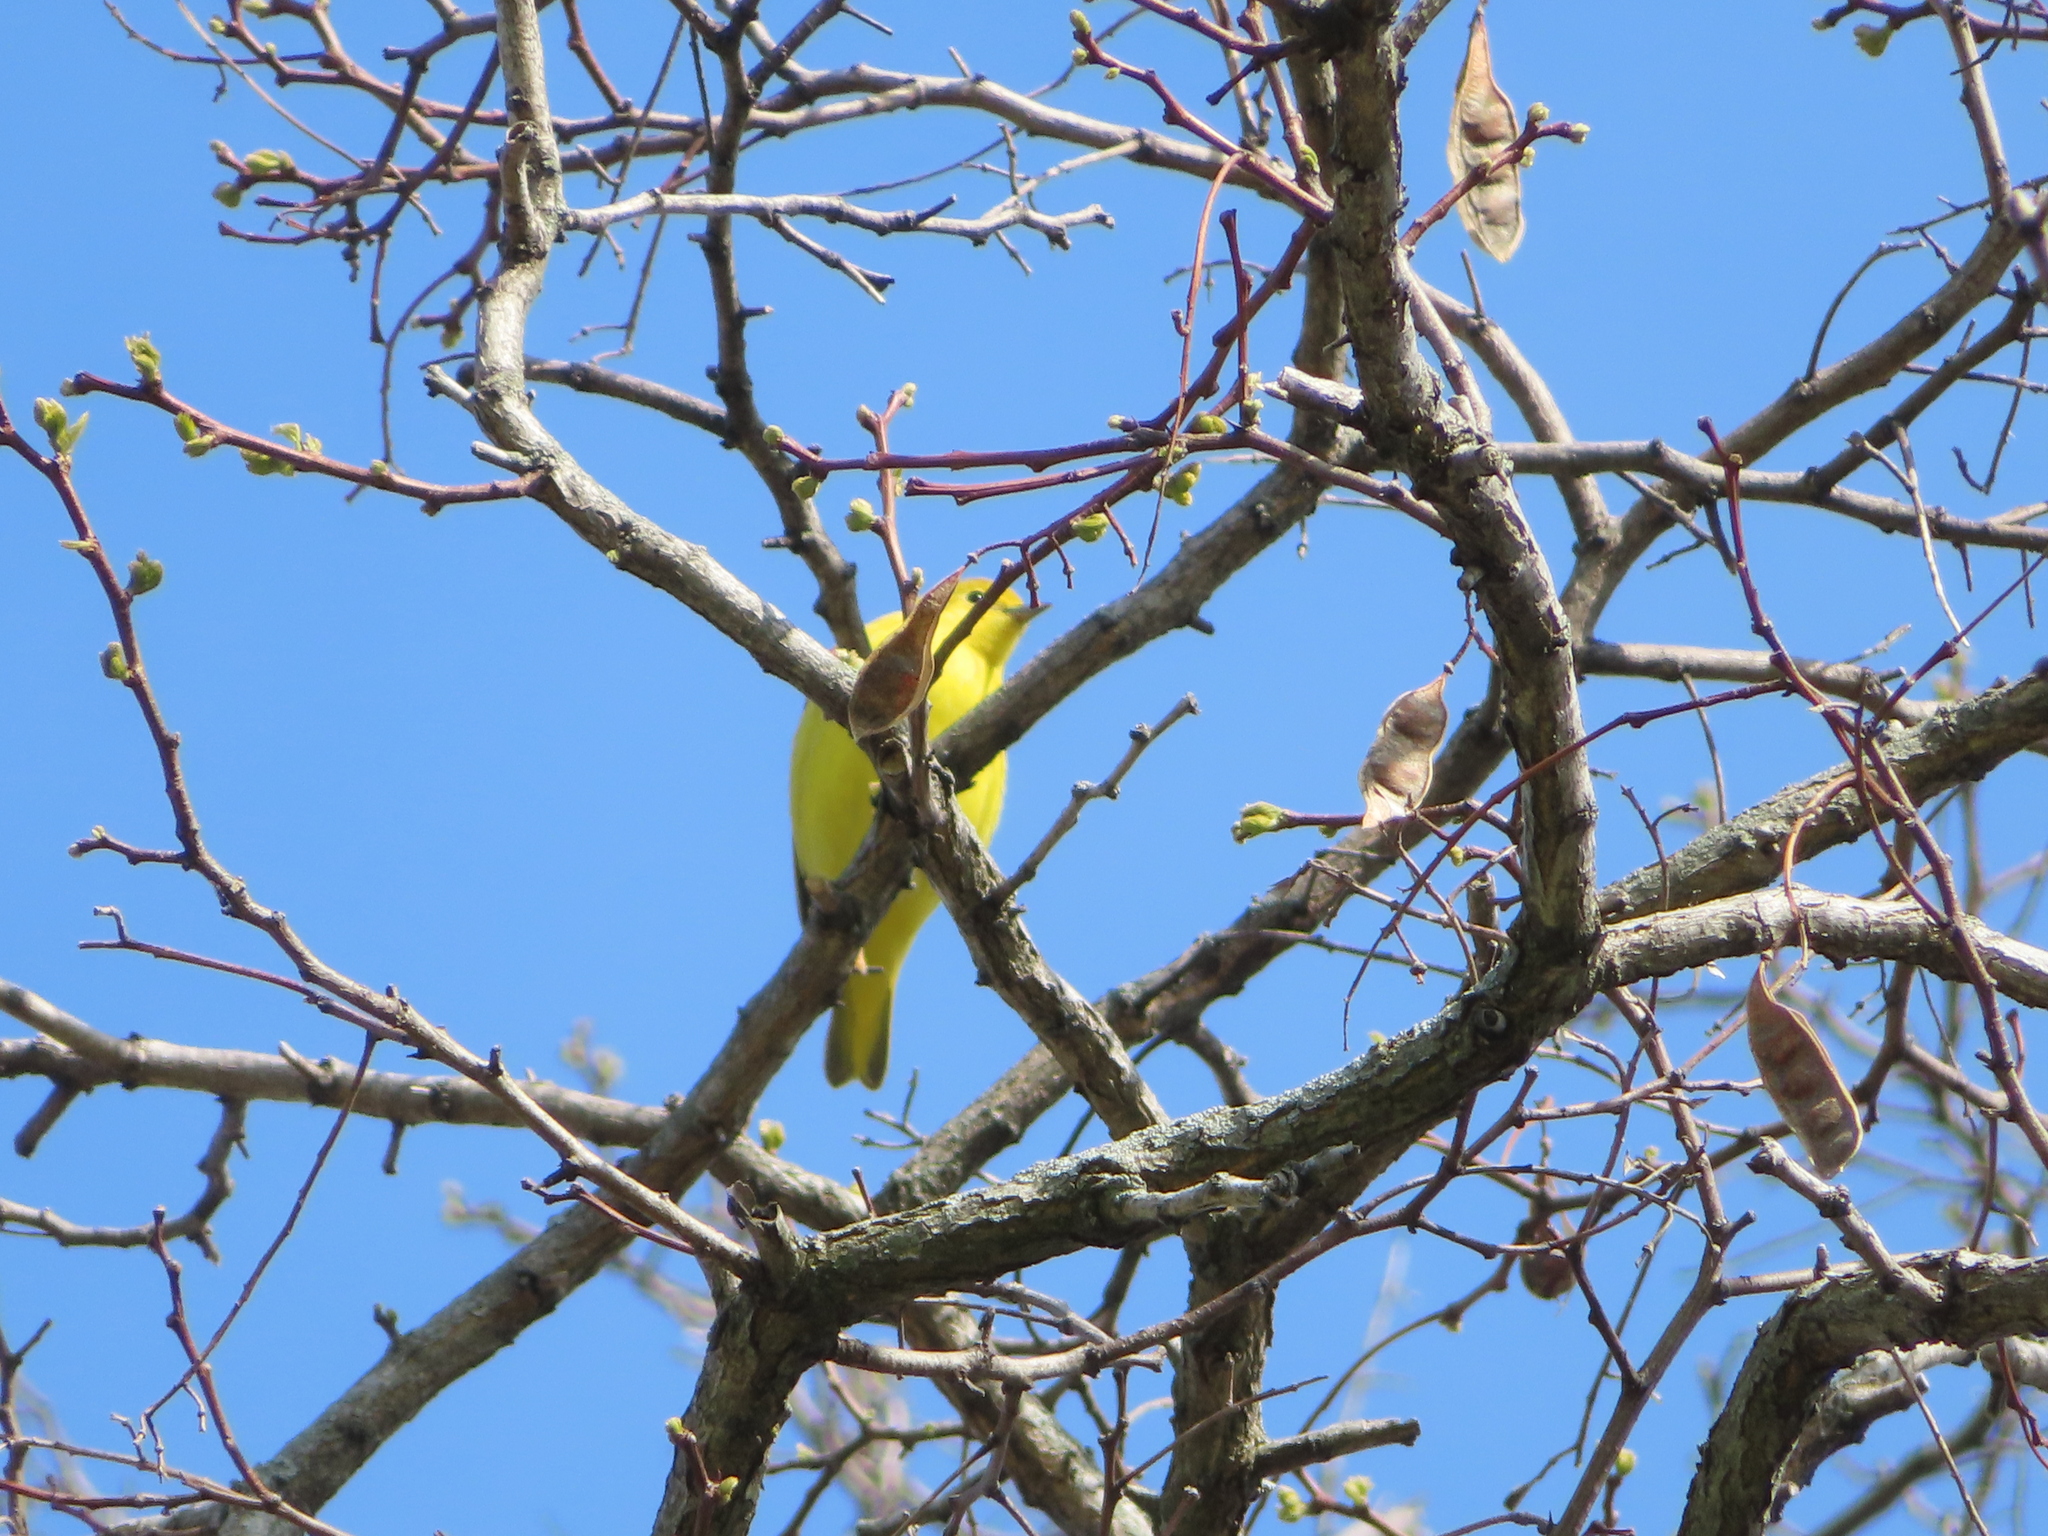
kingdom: Animalia
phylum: Chordata
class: Aves
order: Passeriformes
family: Parulidae
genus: Setophaga
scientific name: Setophaga petechia
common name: Yellow warbler
